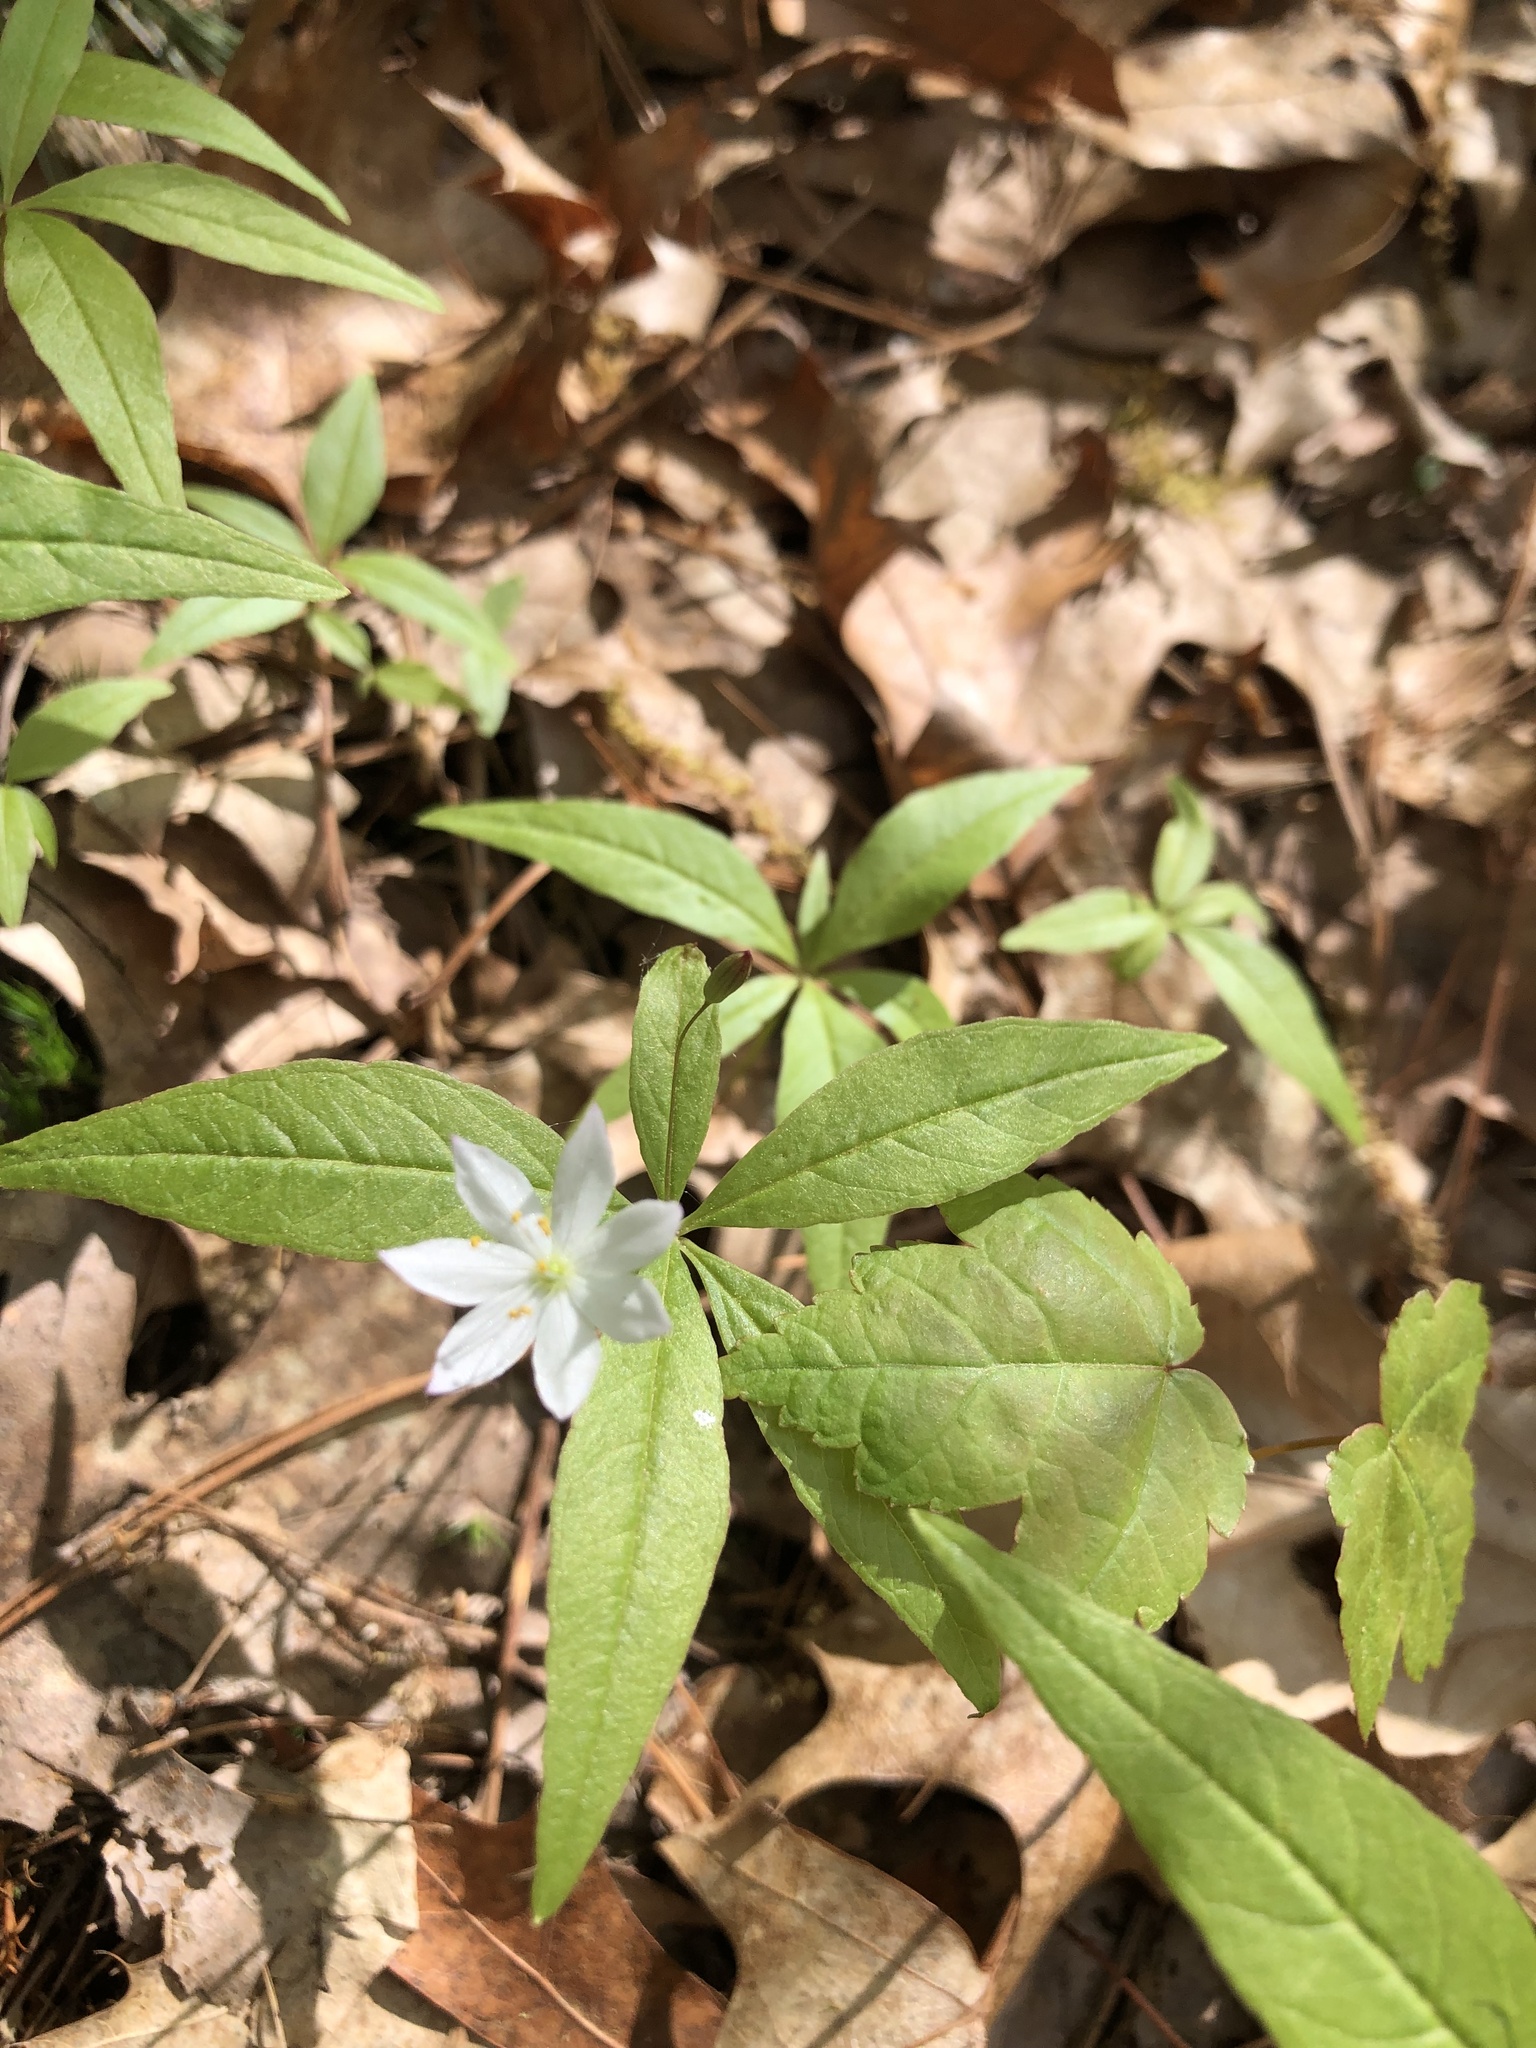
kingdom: Plantae
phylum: Tracheophyta
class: Magnoliopsida
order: Ericales
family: Primulaceae
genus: Lysimachia
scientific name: Lysimachia borealis
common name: American starflower
